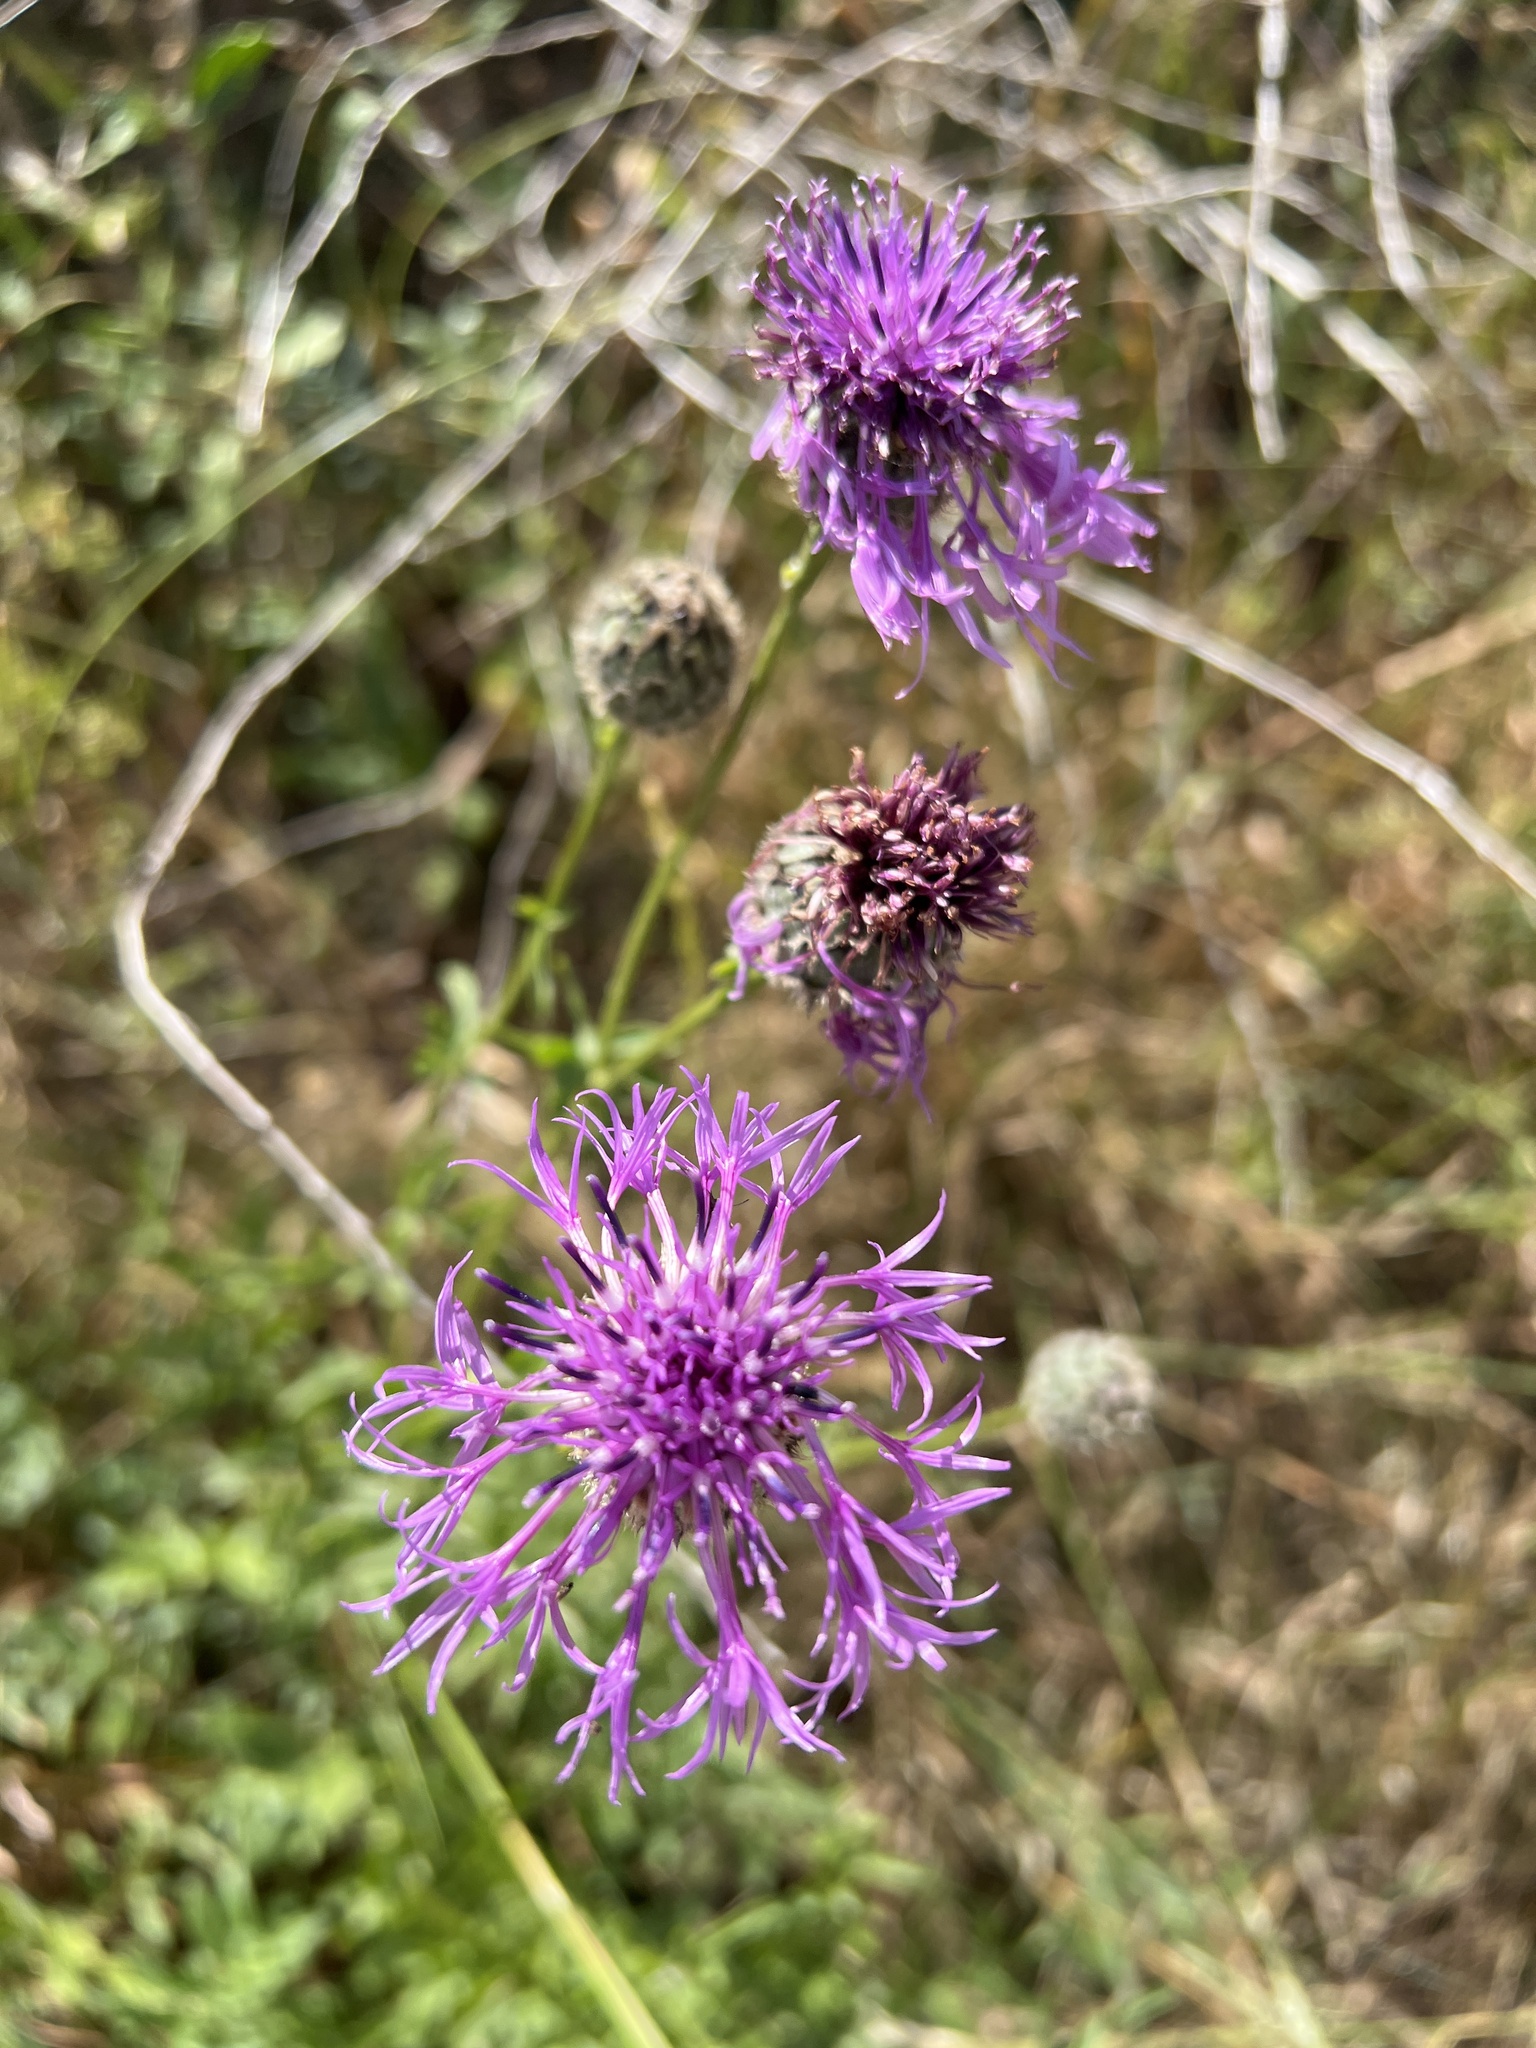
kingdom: Plantae
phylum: Tracheophyta
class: Magnoliopsida
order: Asterales
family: Asteraceae
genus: Centaurea
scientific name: Centaurea scabiosa
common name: Greater knapweed
